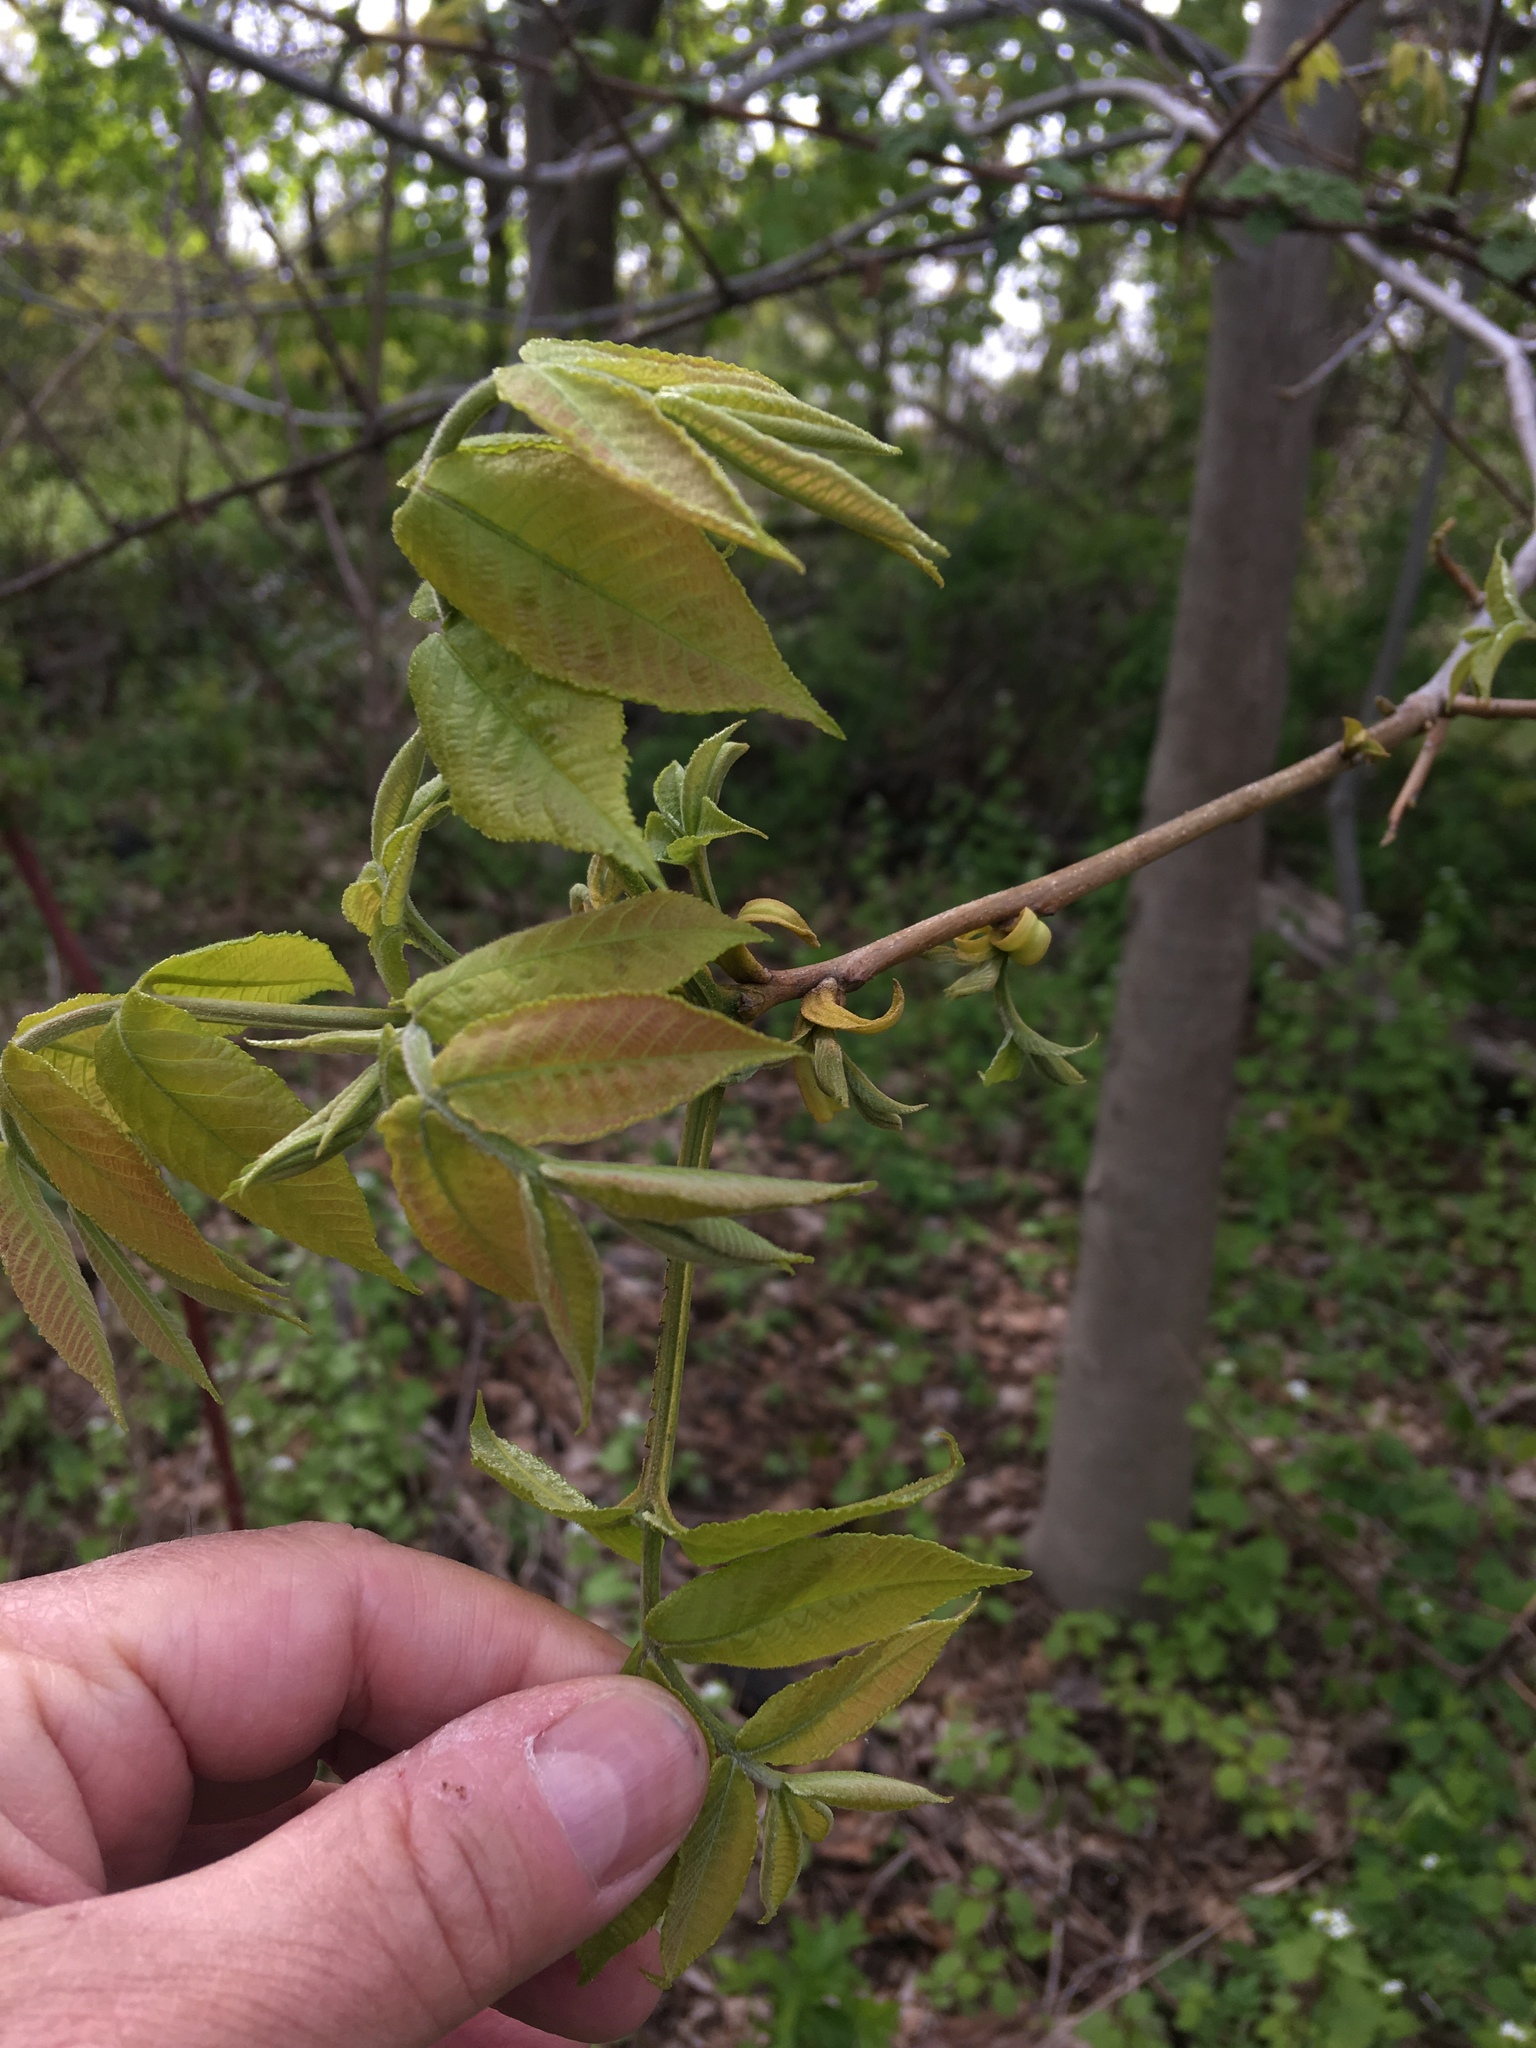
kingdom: Plantae
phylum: Tracheophyta
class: Magnoliopsida
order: Fagales
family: Juglandaceae
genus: Carya
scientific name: Carya cordiformis
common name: Bitternut hickory
